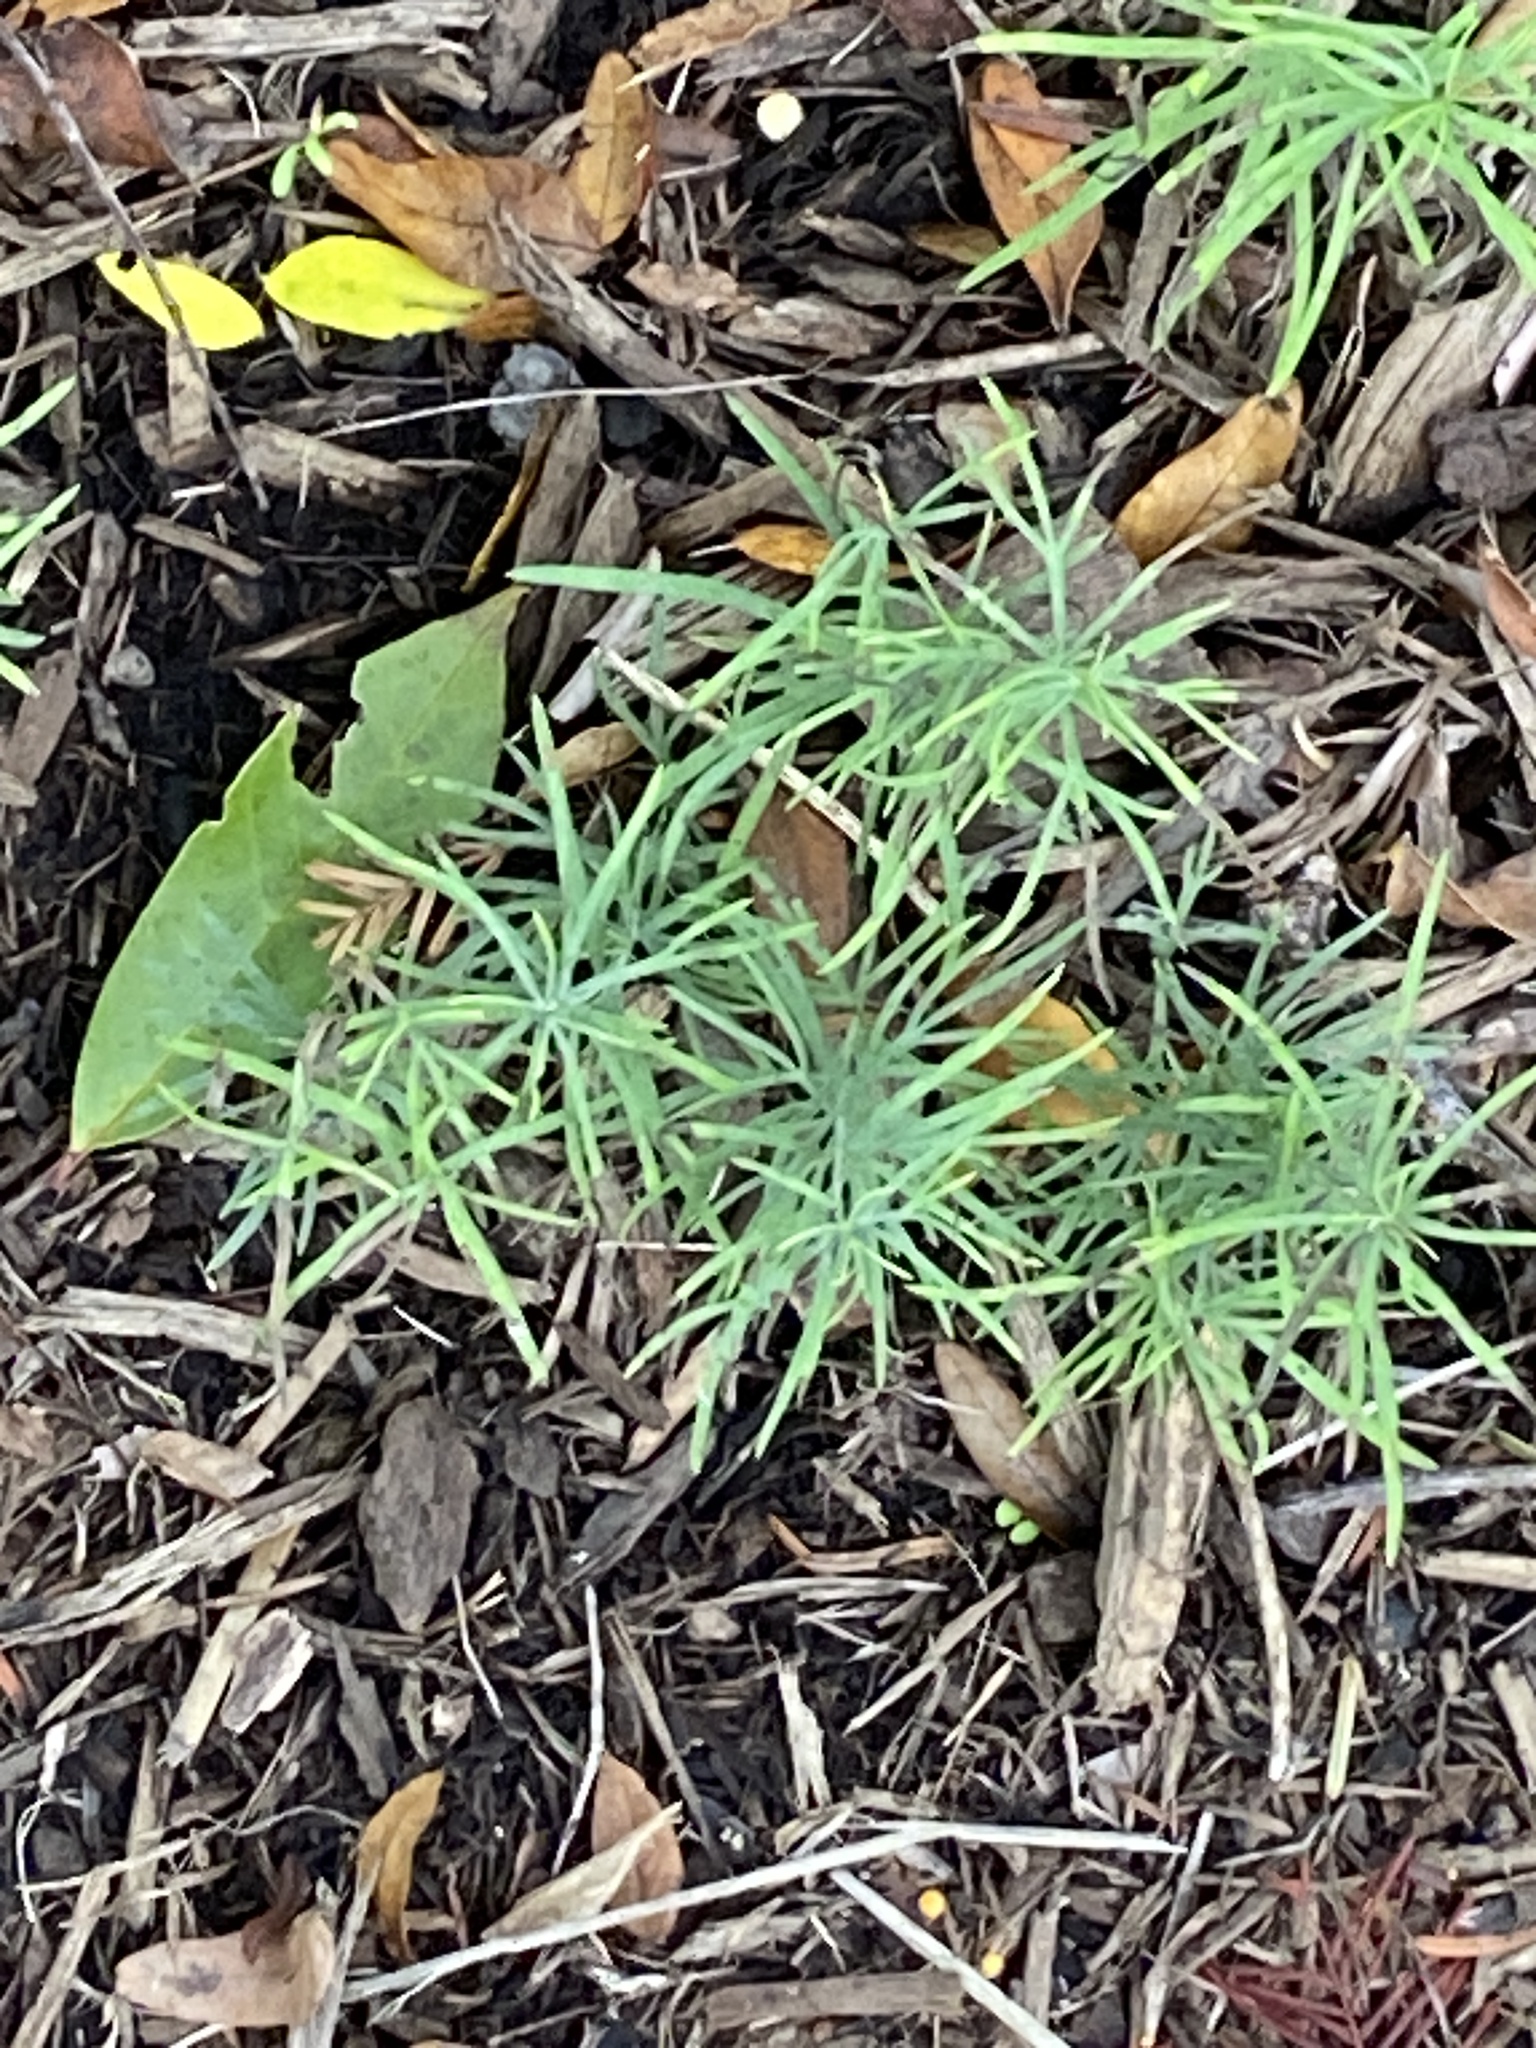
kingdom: Plantae
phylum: Tracheophyta
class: Magnoliopsida
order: Lamiales
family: Plantaginaceae
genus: Linaria
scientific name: Linaria vulgaris
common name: Butter and eggs
